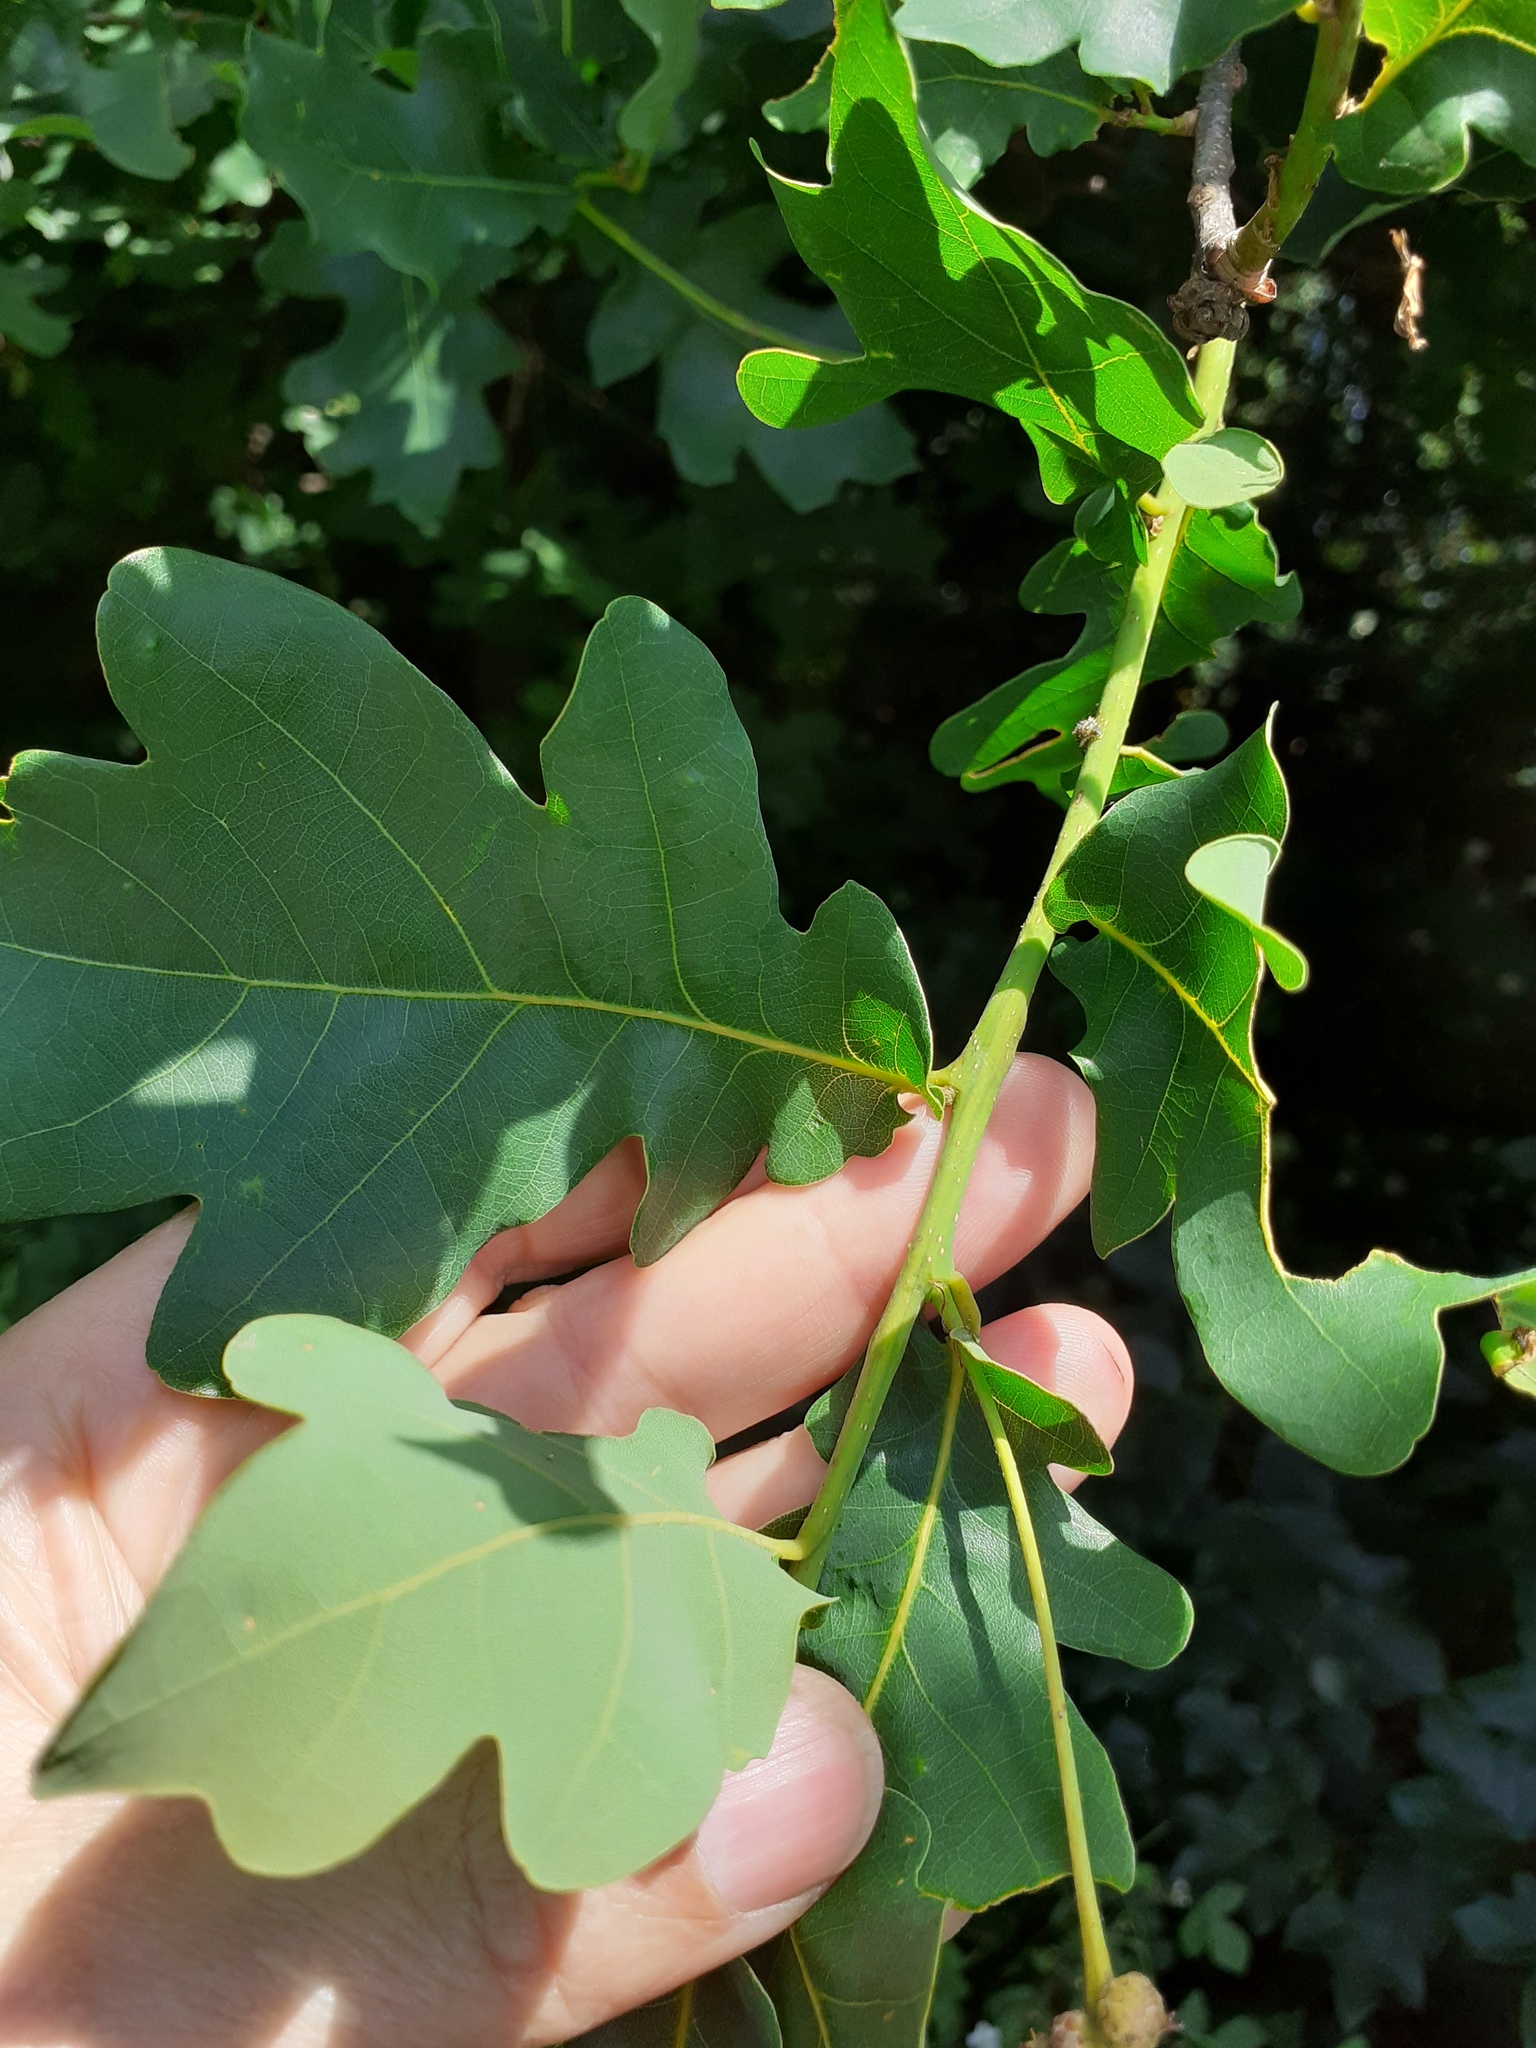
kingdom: Plantae
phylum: Tracheophyta
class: Magnoliopsida
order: Fagales
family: Fagaceae
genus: Quercus
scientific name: Quercus robur
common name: Pedunculate oak
